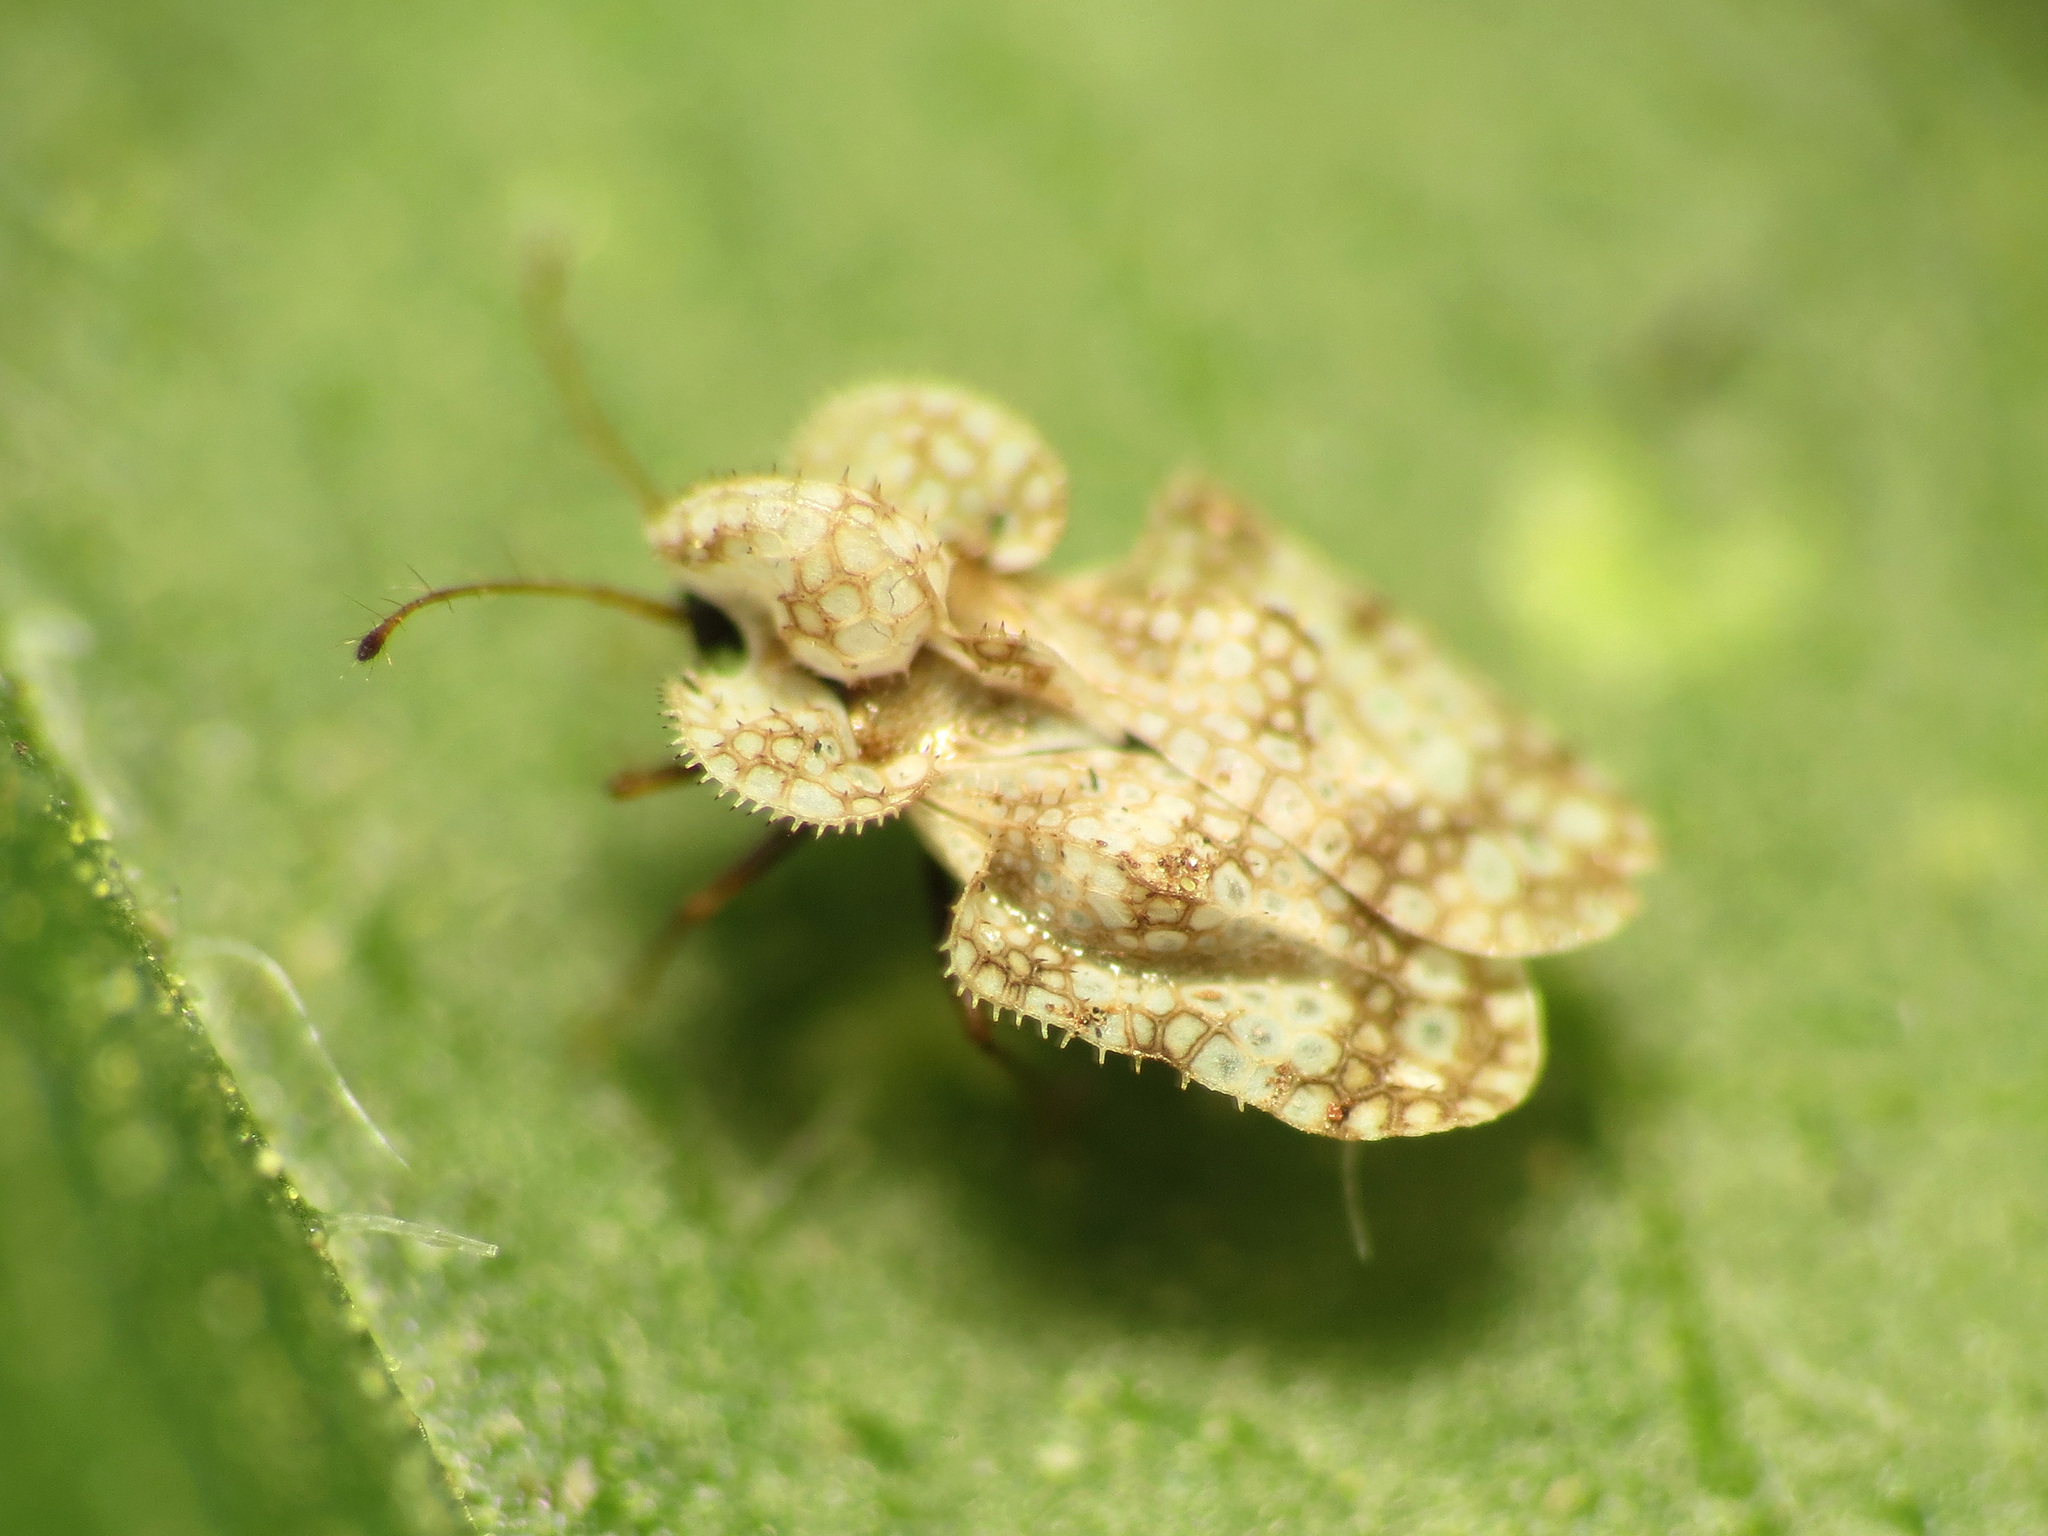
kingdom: Animalia
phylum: Arthropoda
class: Insecta
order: Hemiptera
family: Tingidae
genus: Corythucha
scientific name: Corythucha marmorata
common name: Chrysanthemum lace bug
